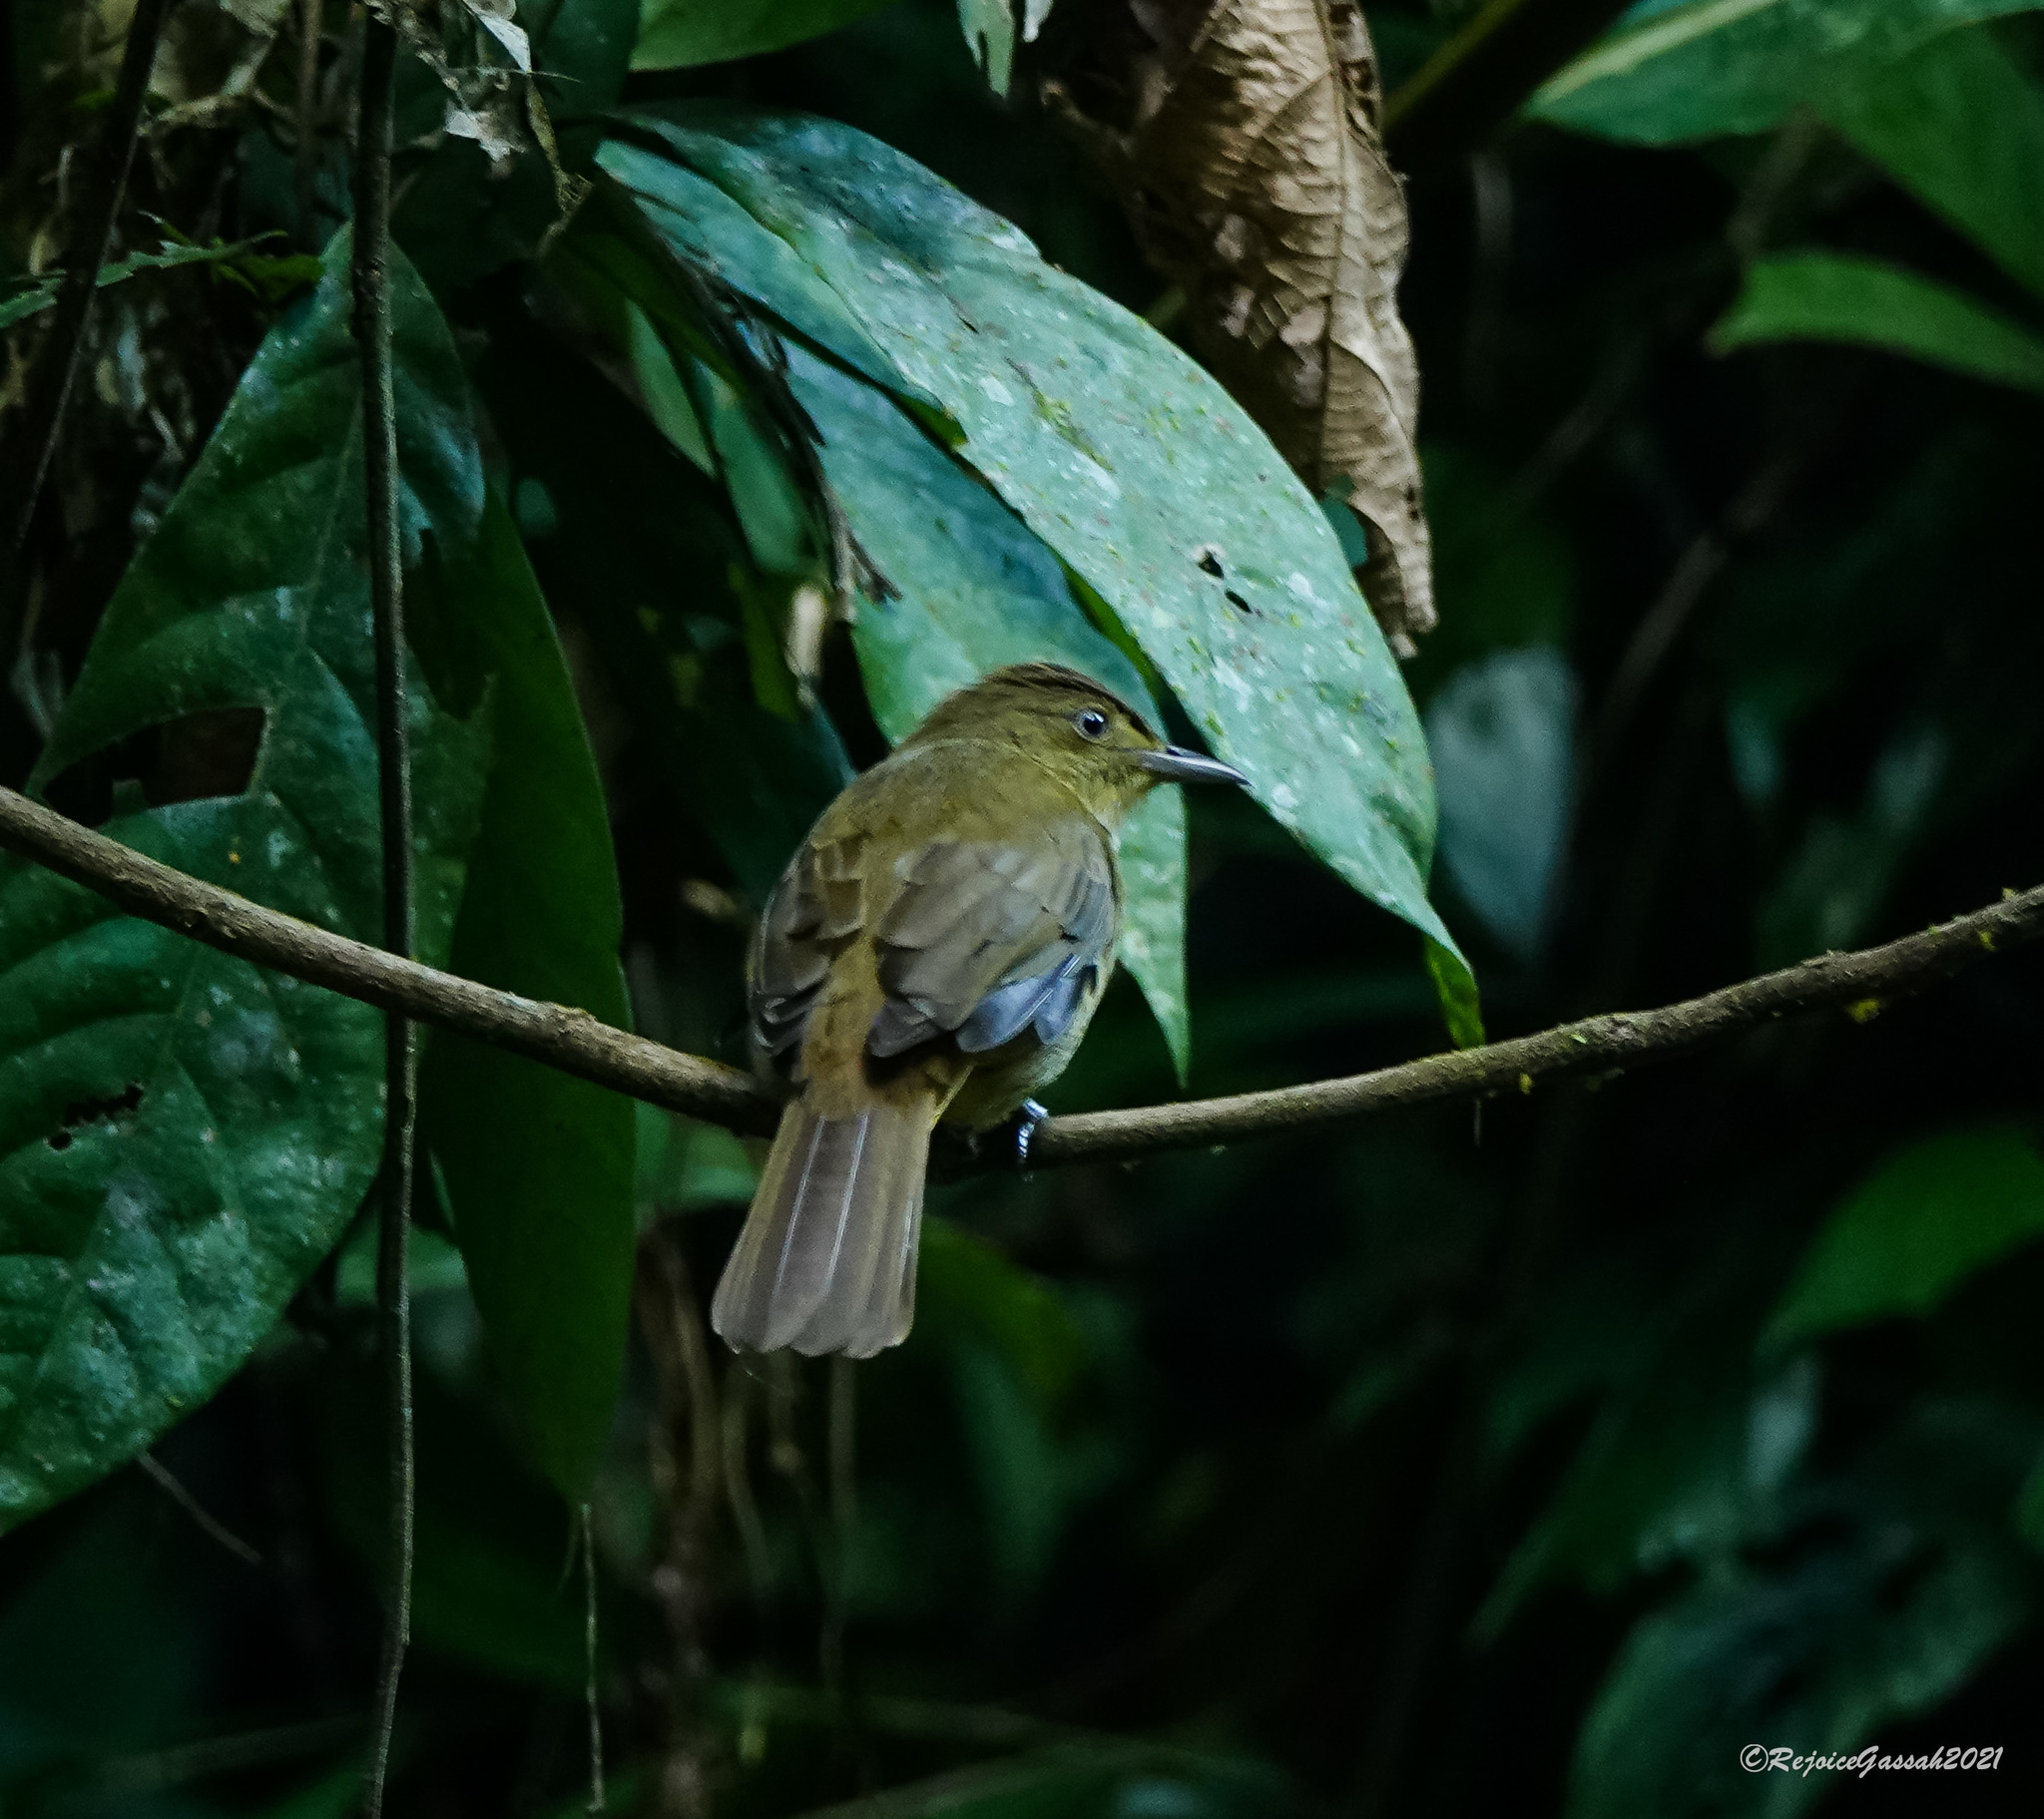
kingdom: Animalia
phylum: Chordata
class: Aves
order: Passeriformes
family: Pycnonotidae
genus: Iole
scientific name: Iole virescens
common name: Olive bulbul
